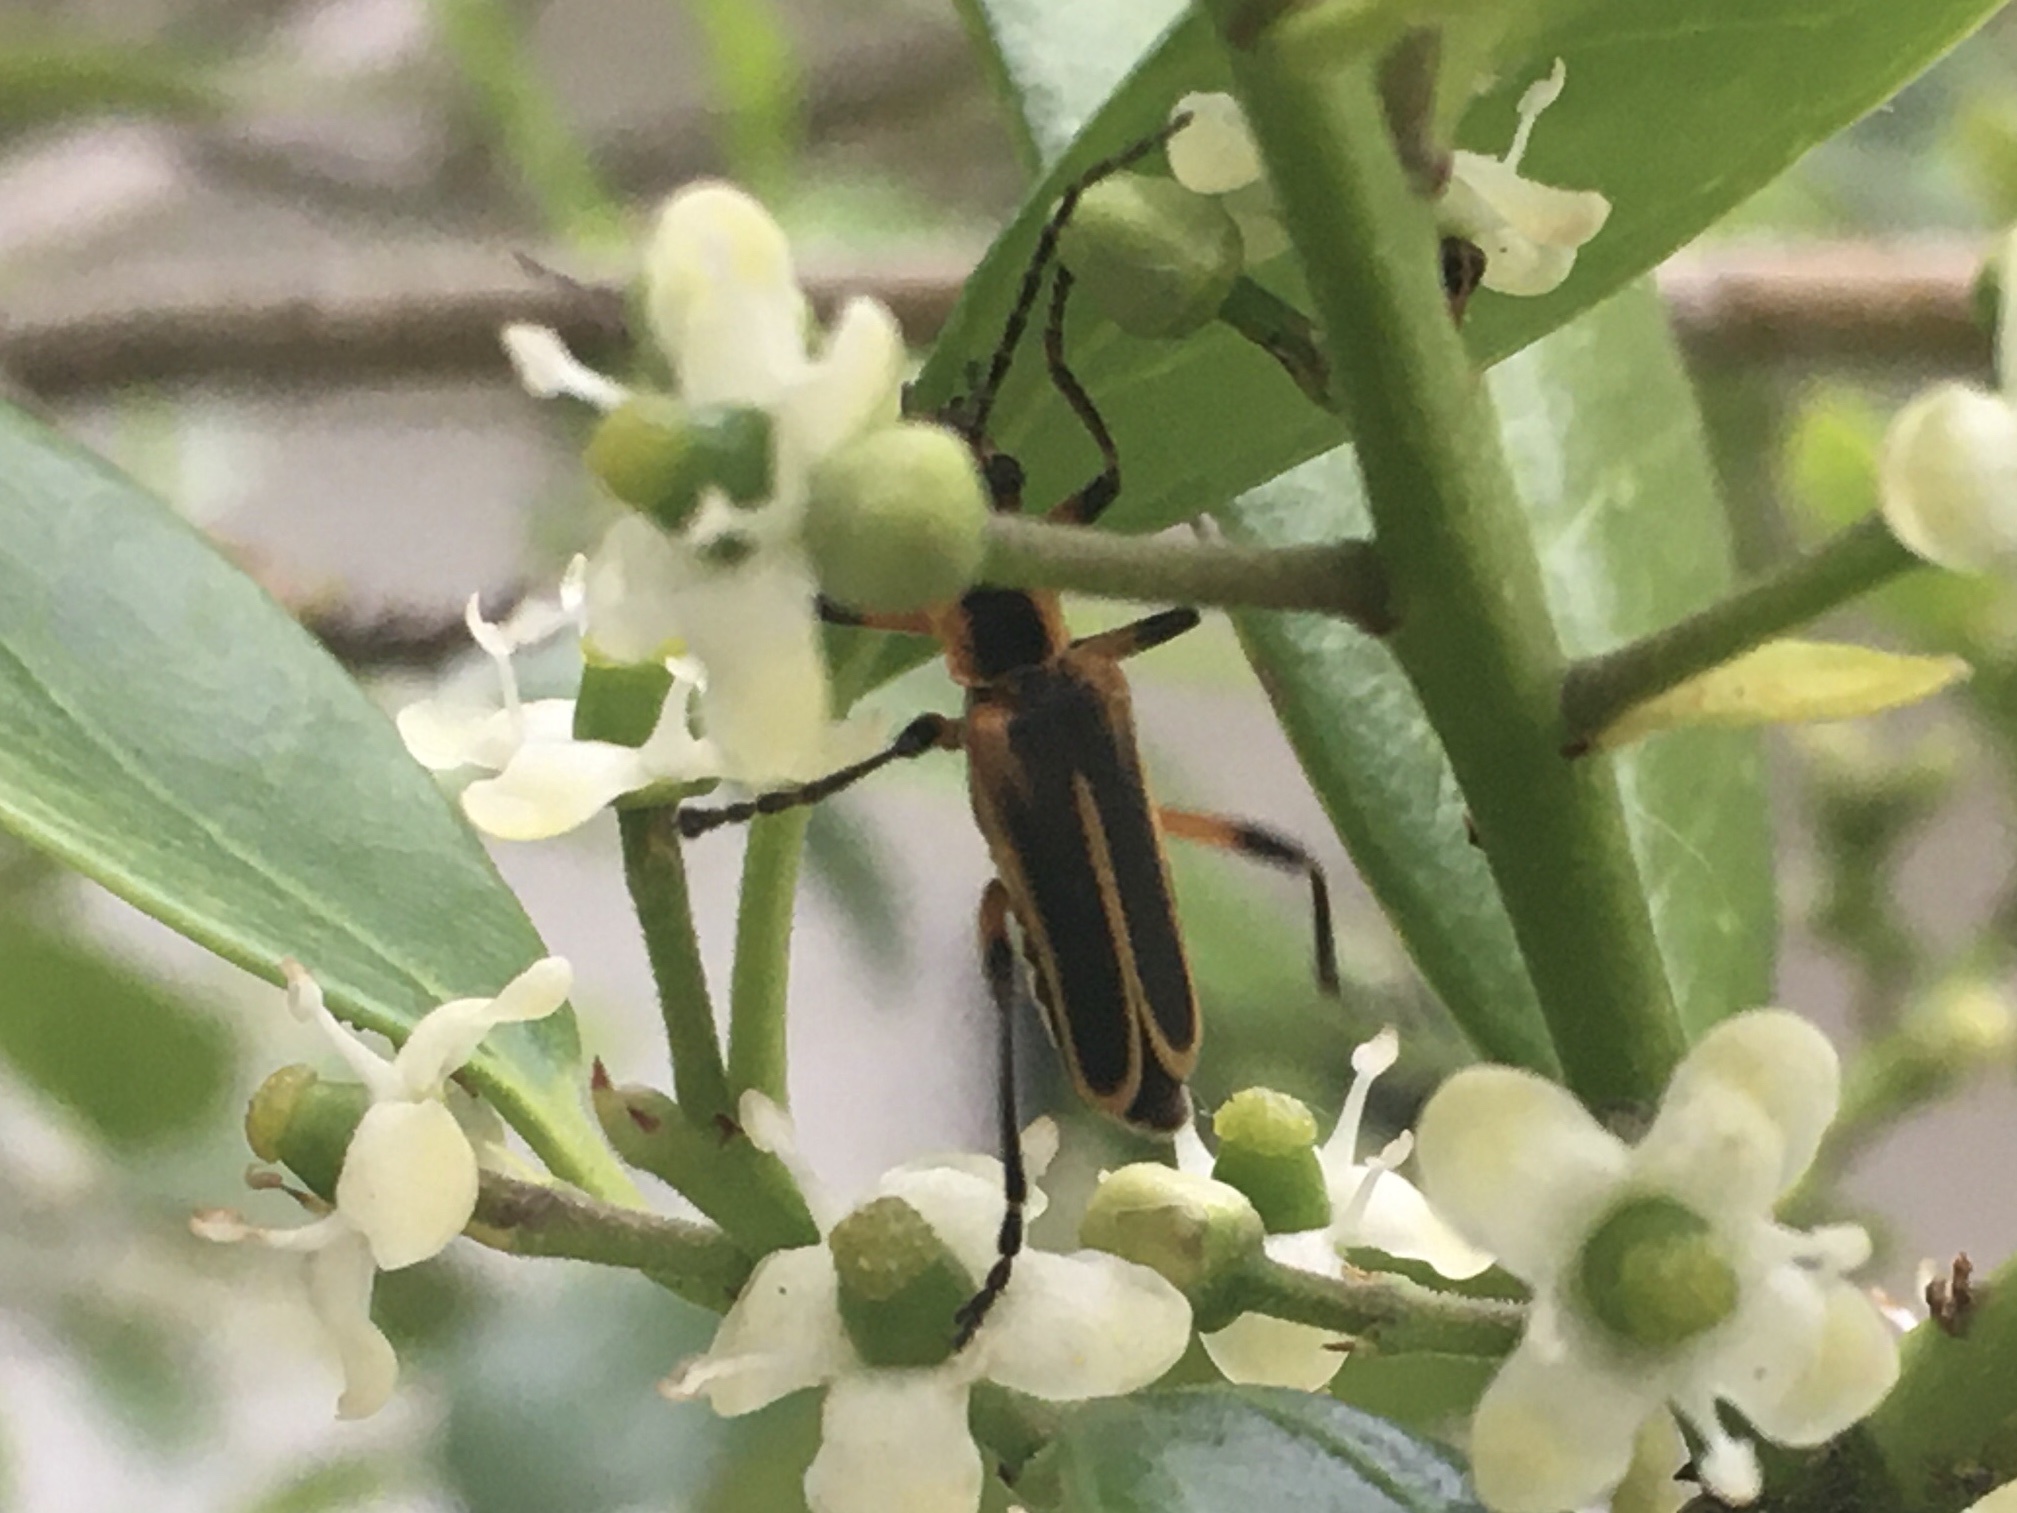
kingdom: Animalia
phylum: Arthropoda
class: Insecta
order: Coleoptera
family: Cantharidae
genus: Chauliognathus
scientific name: Chauliognathus marginatus
